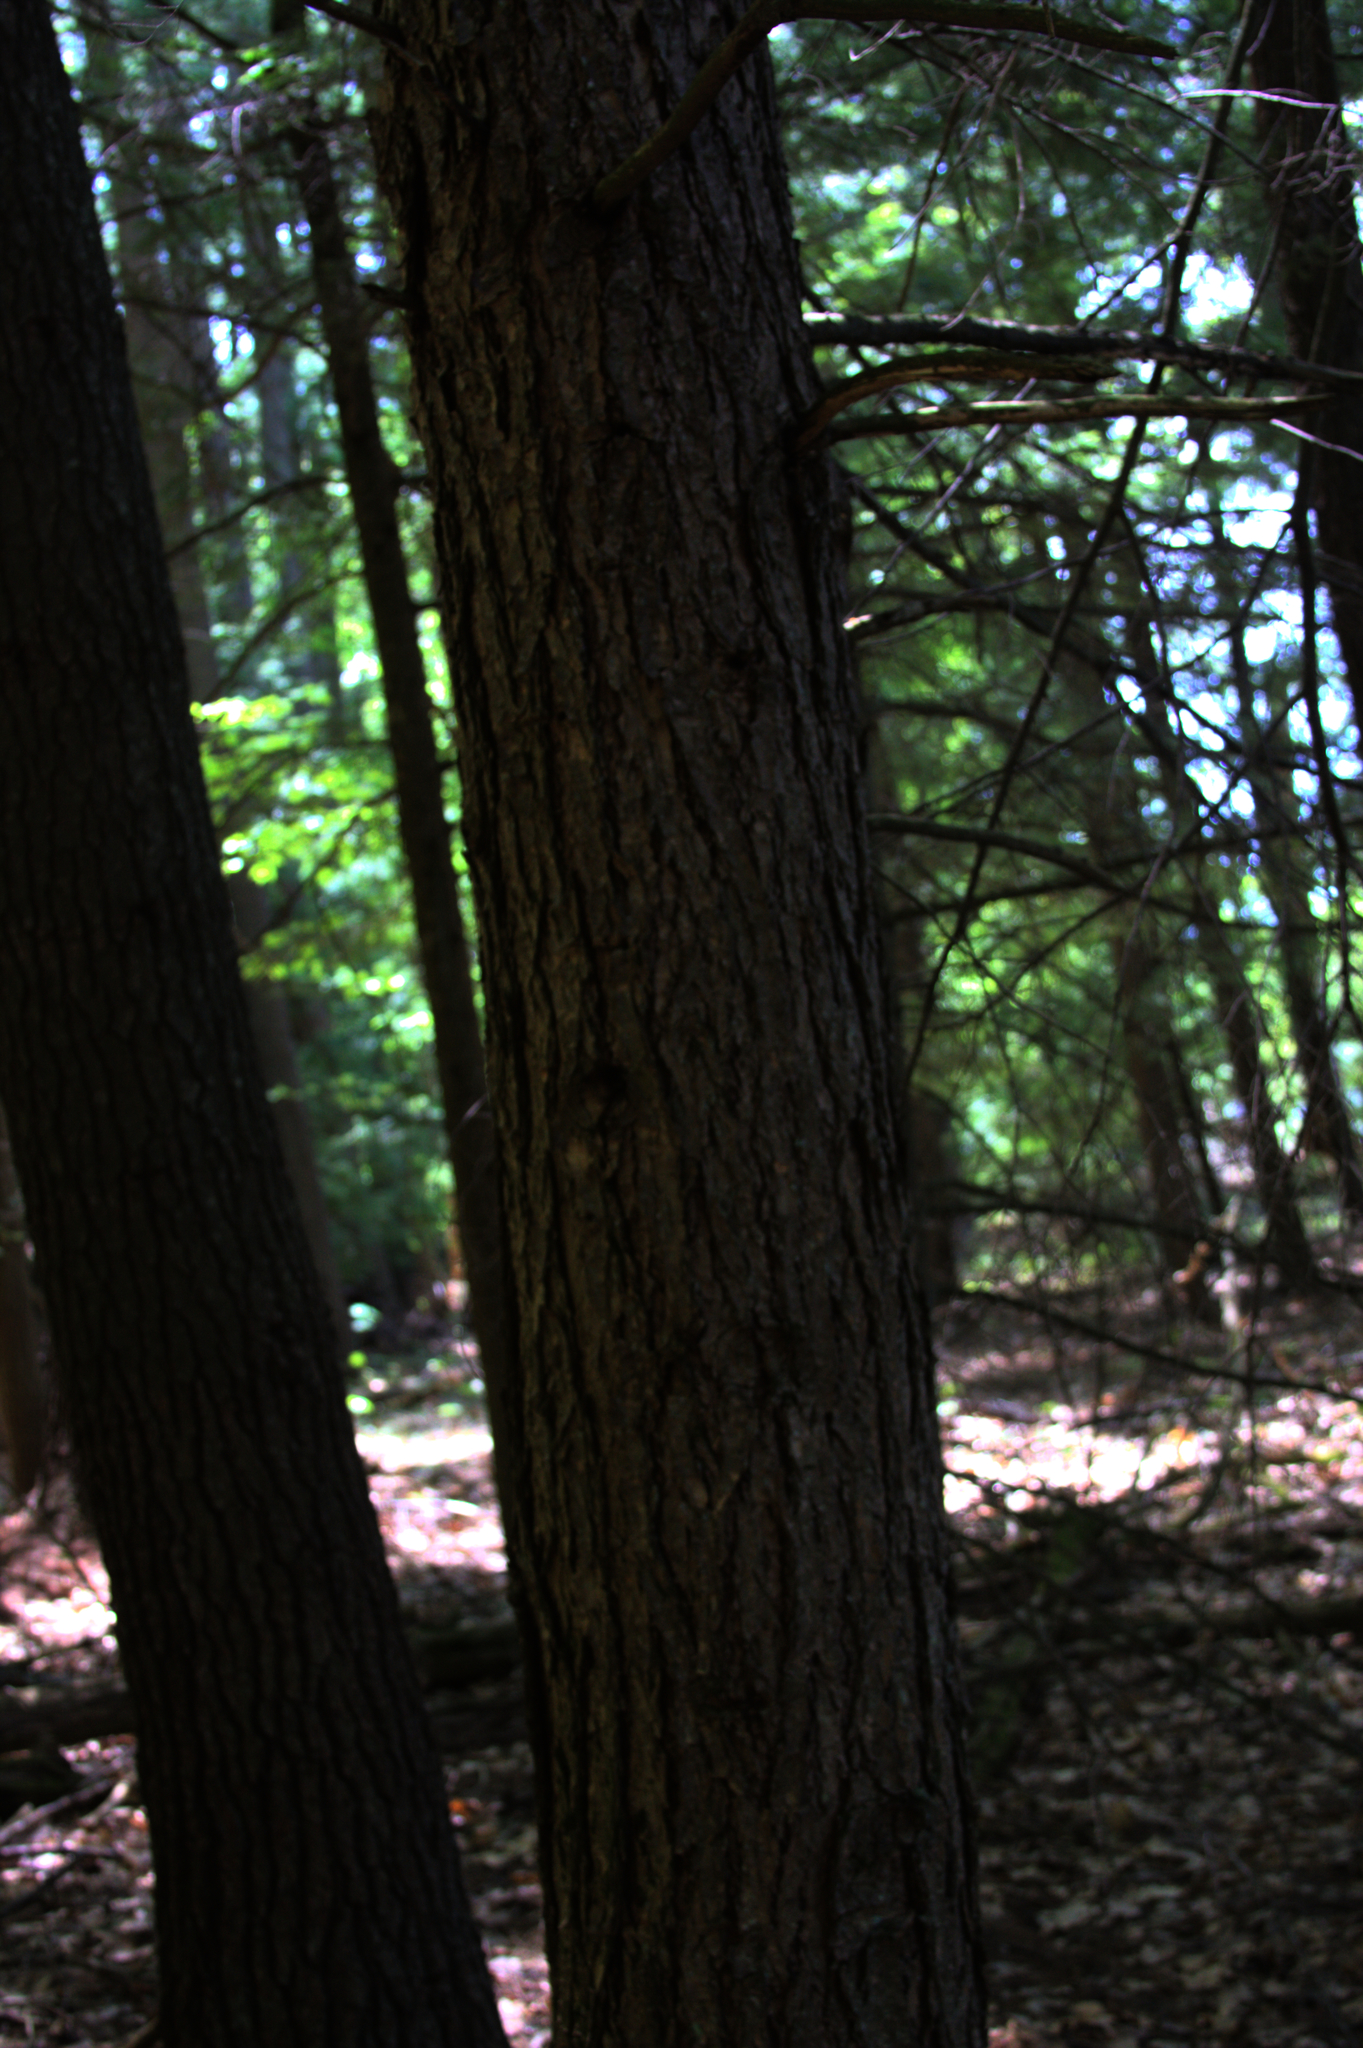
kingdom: Plantae
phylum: Tracheophyta
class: Pinopsida
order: Pinales
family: Pinaceae
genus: Tsuga
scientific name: Tsuga canadensis
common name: Eastern hemlock
